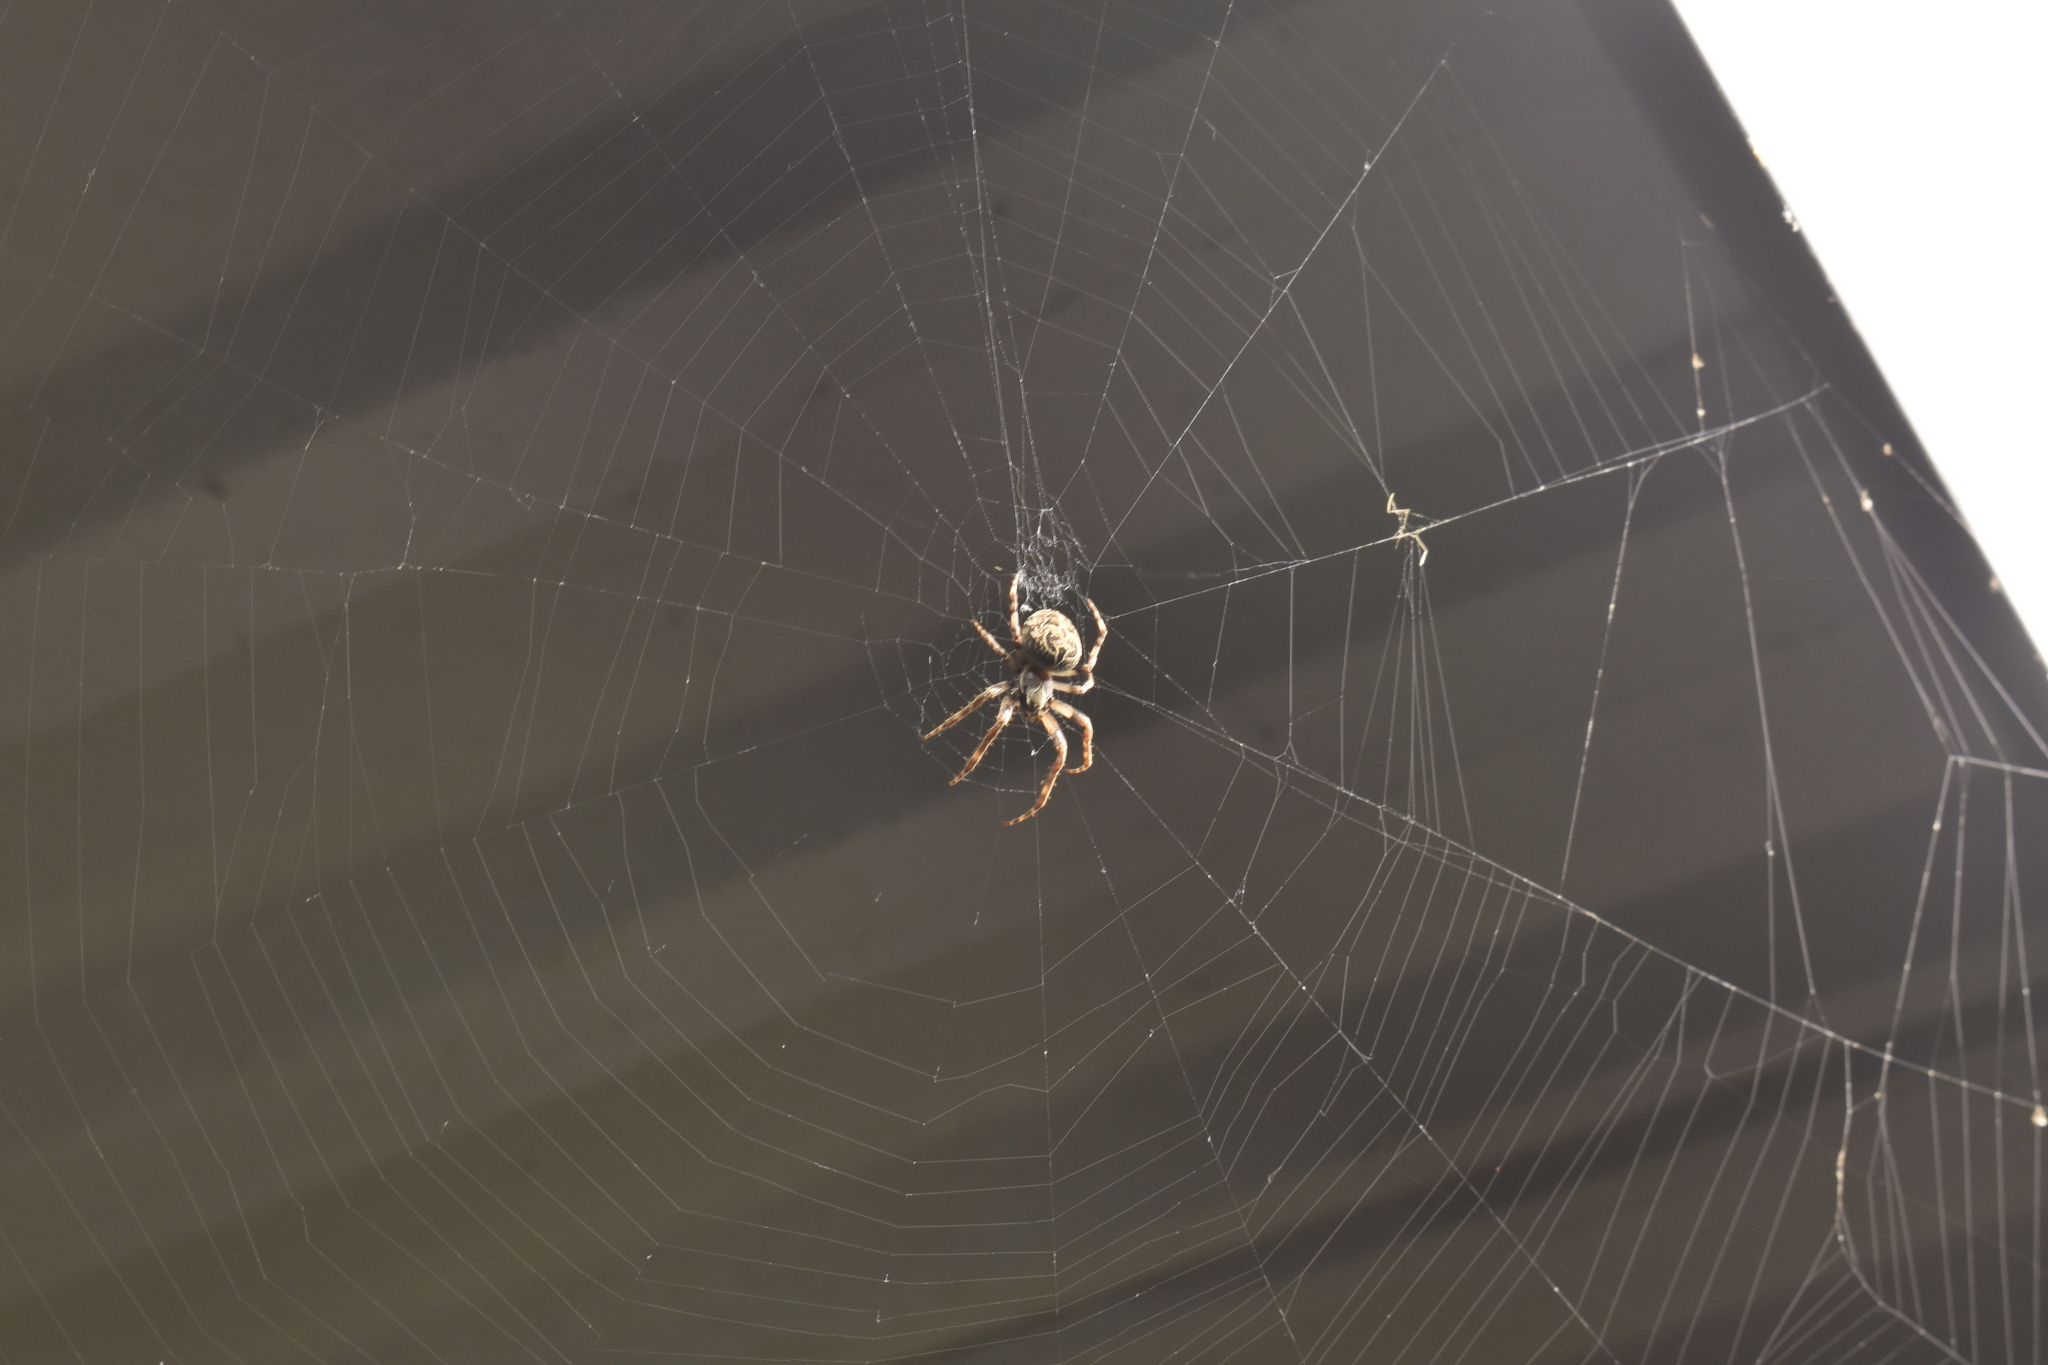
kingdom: Animalia
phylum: Arthropoda
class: Arachnida
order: Araneae
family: Araneidae
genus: Larinioides
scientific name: Larinioides sclopetarius
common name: Bridge orbweaver
